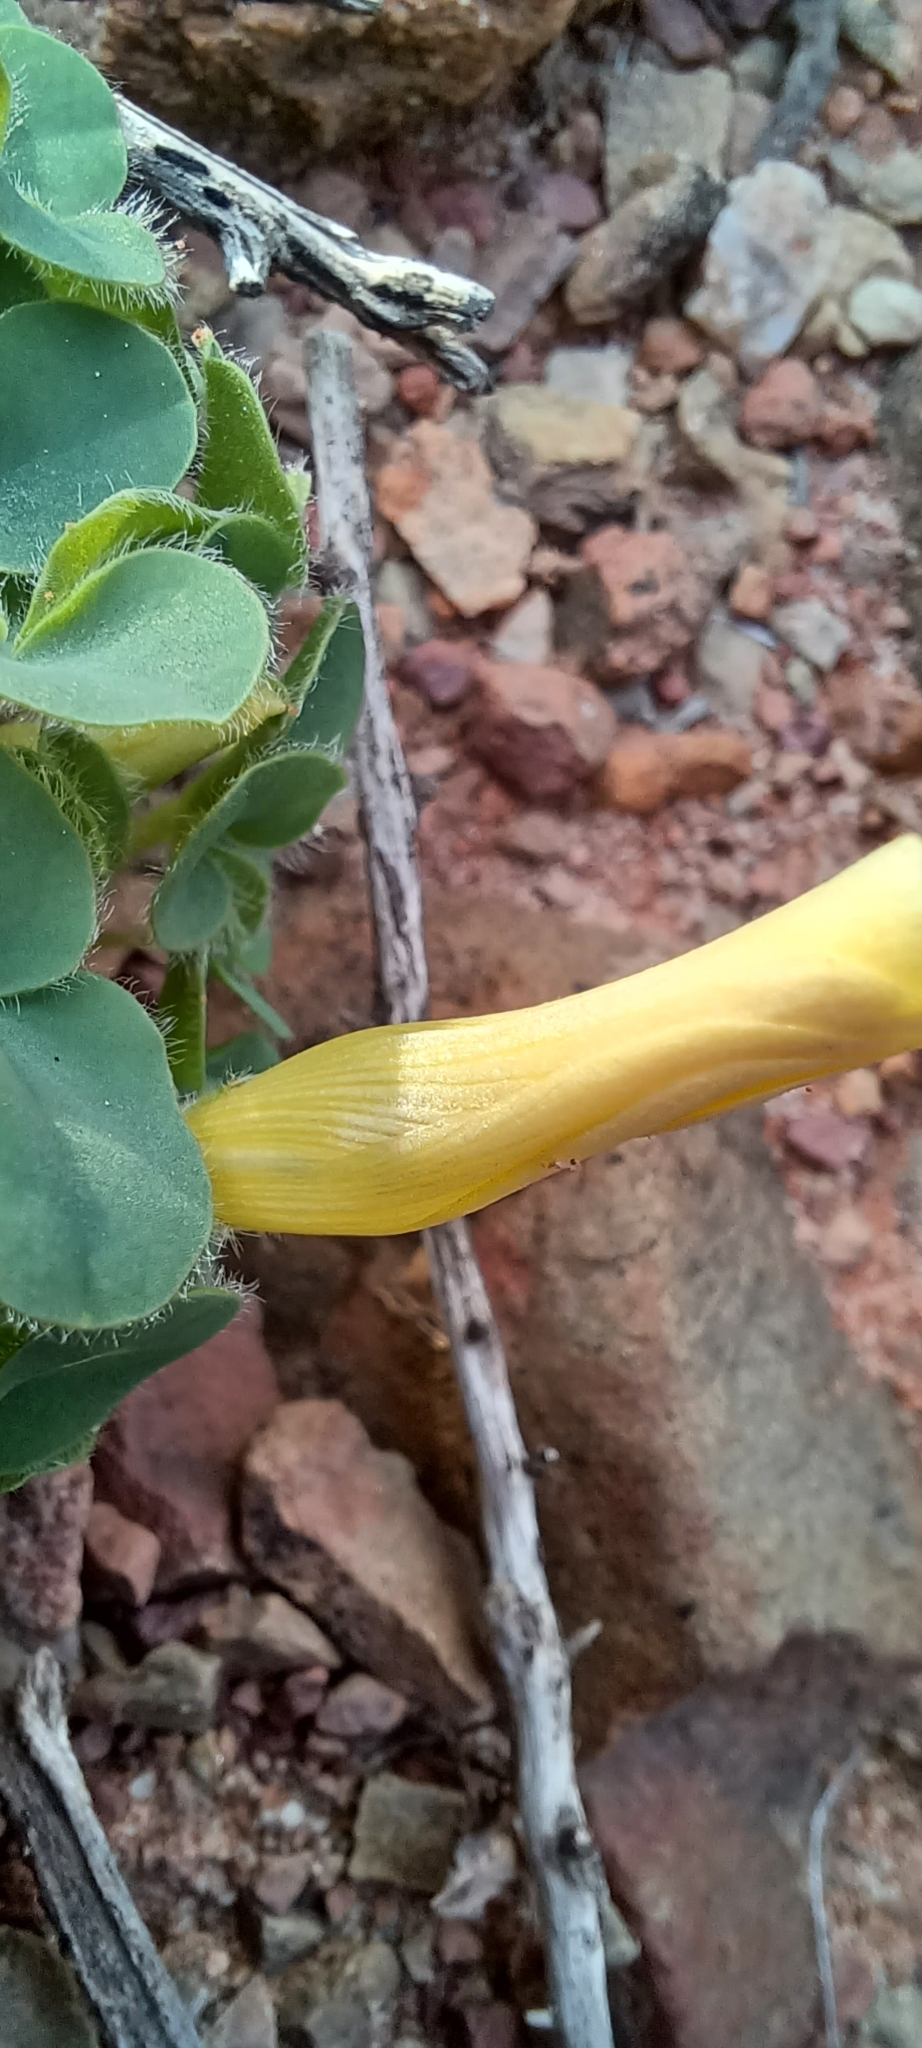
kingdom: Plantae
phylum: Tracheophyta
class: Magnoliopsida
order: Oxalidales
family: Oxalidaceae
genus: Oxalis
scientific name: Oxalis purpurea
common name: Purple woodsorrel
